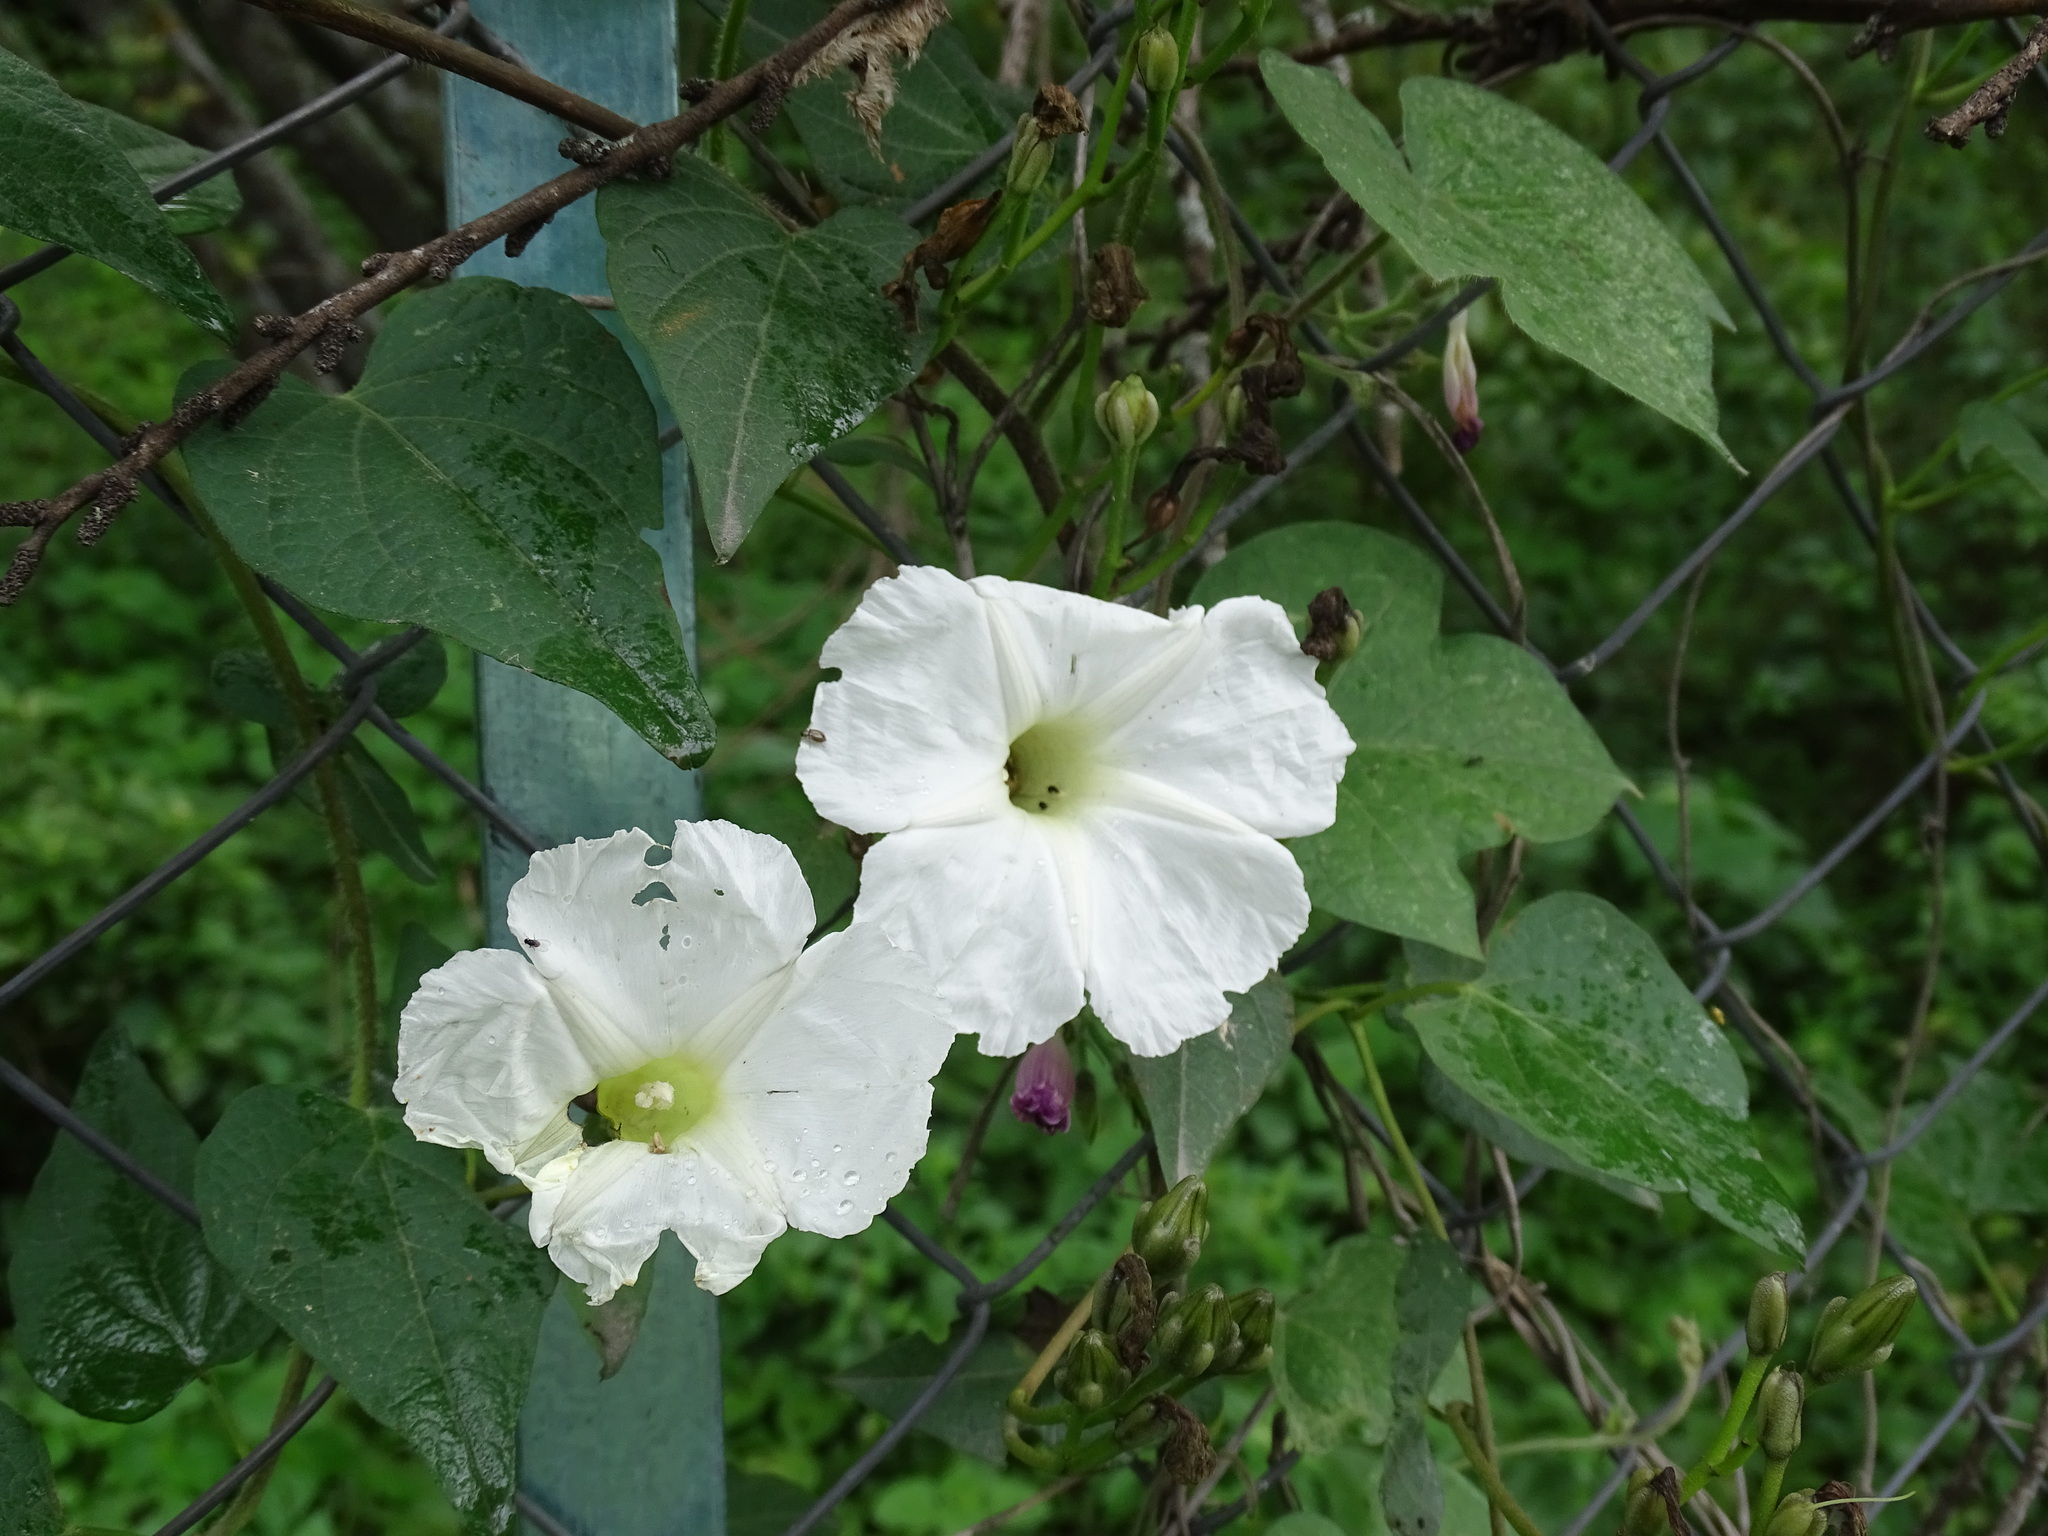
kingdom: Plantae
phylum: Tracheophyta
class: Magnoliopsida
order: Solanales
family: Convolvulaceae
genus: Ipomoea
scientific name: Ipomoea proxima
